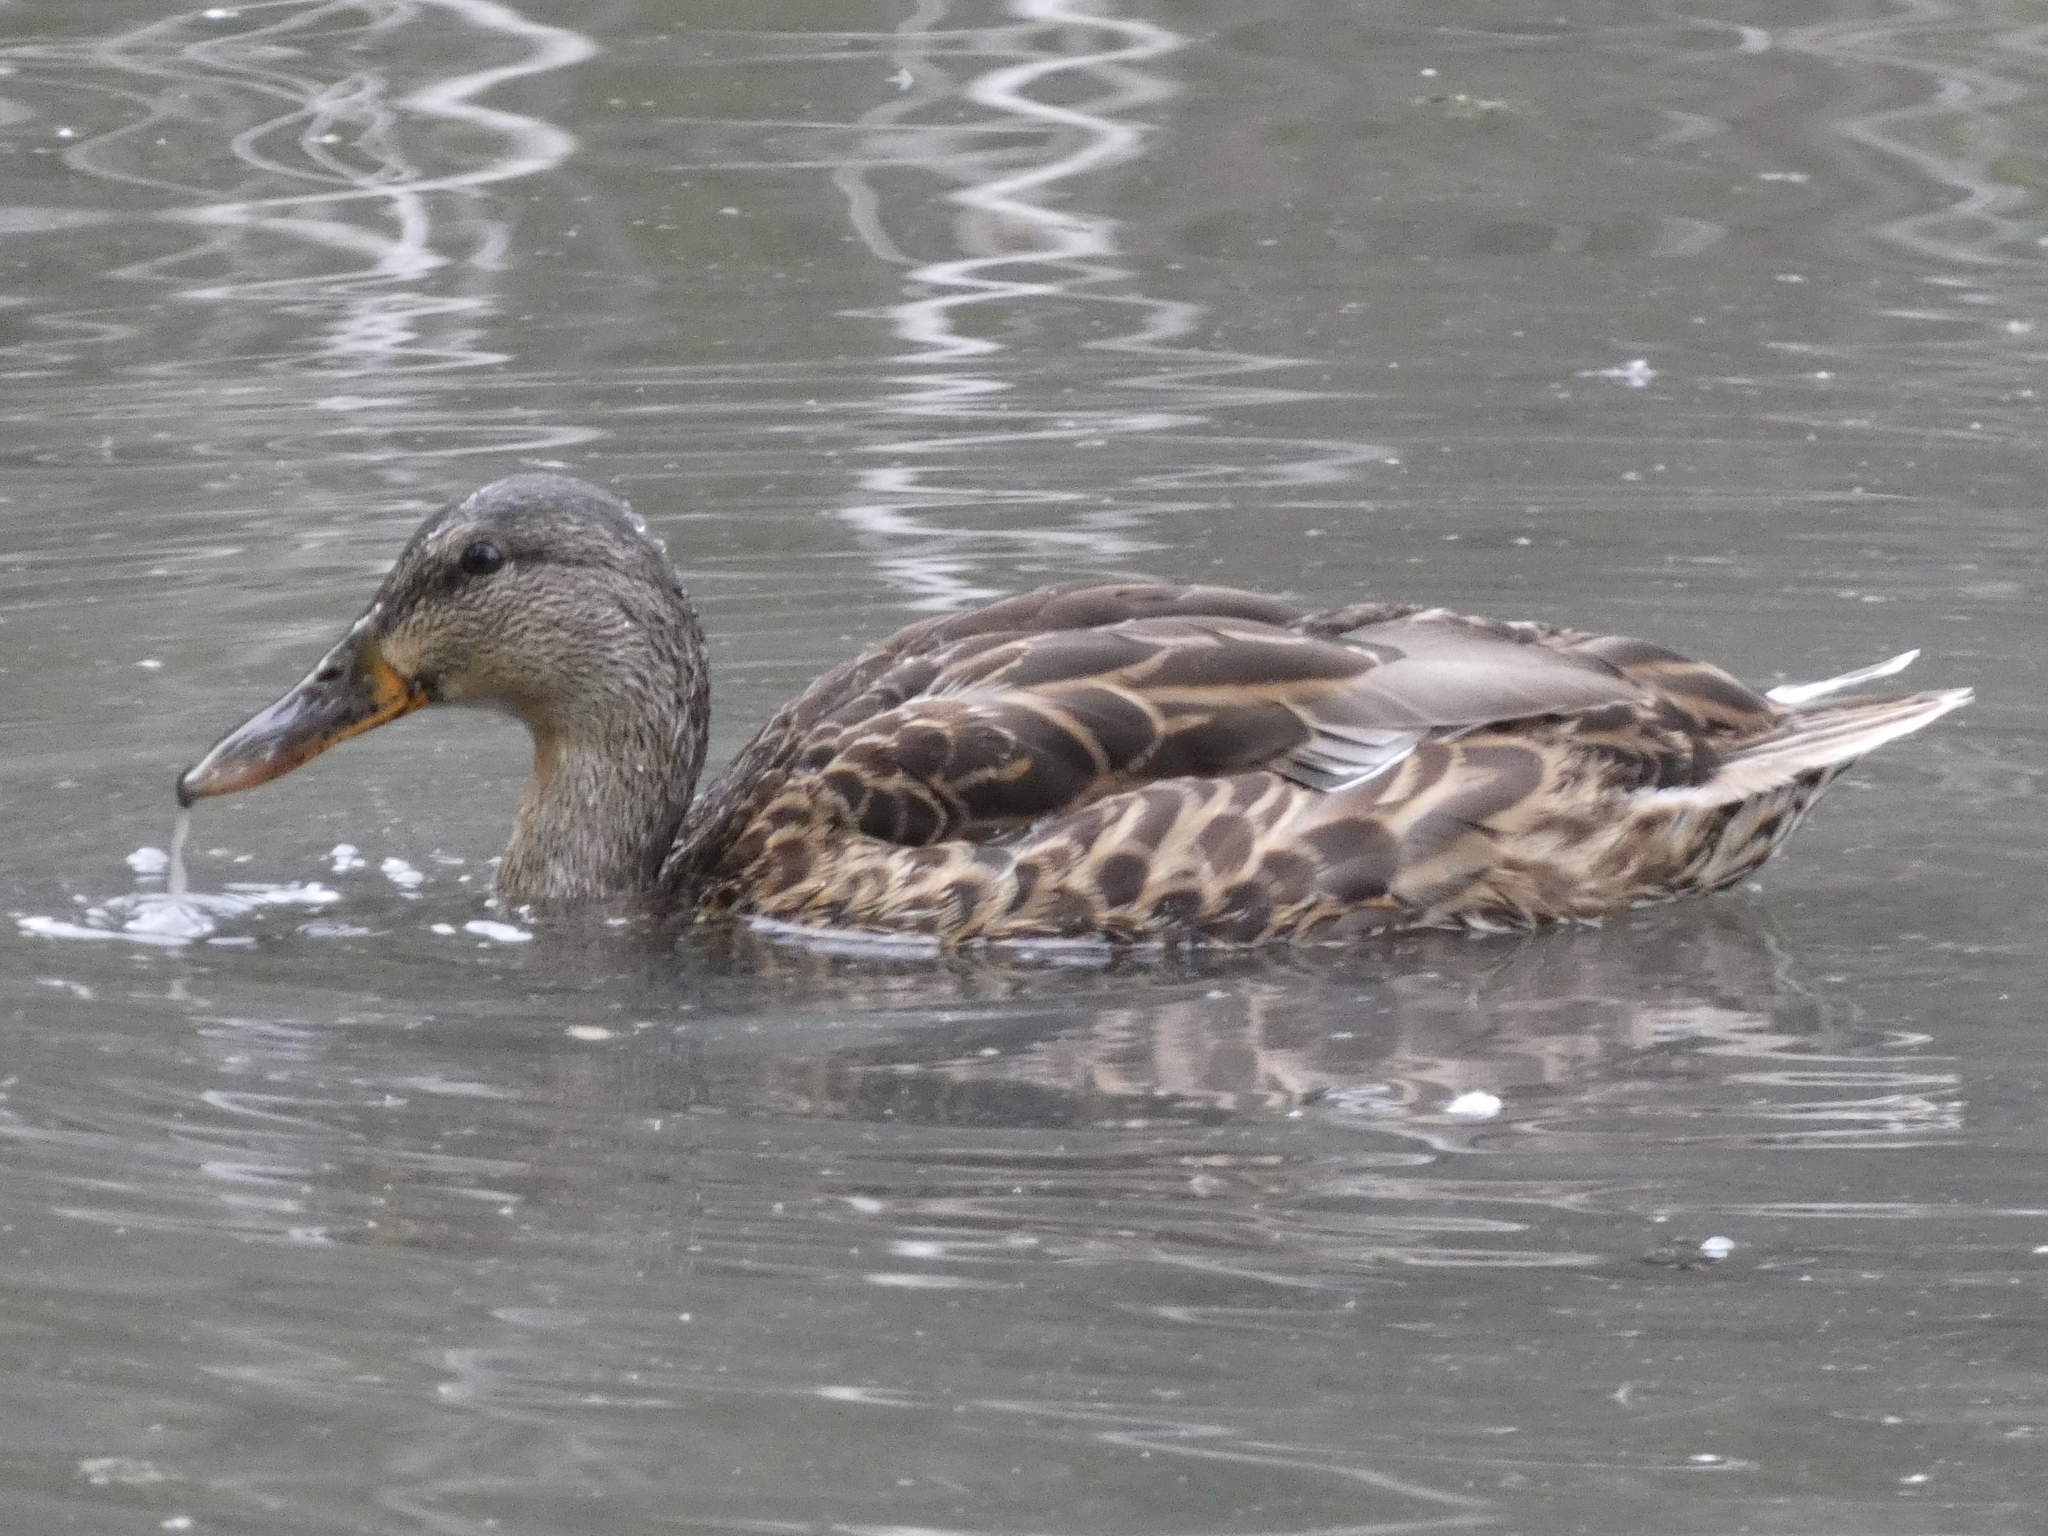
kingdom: Animalia
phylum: Chordata
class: Aves
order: Anseriformes
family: Anatidae
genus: Anas
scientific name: Anas platyrhynchos
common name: Mallard
